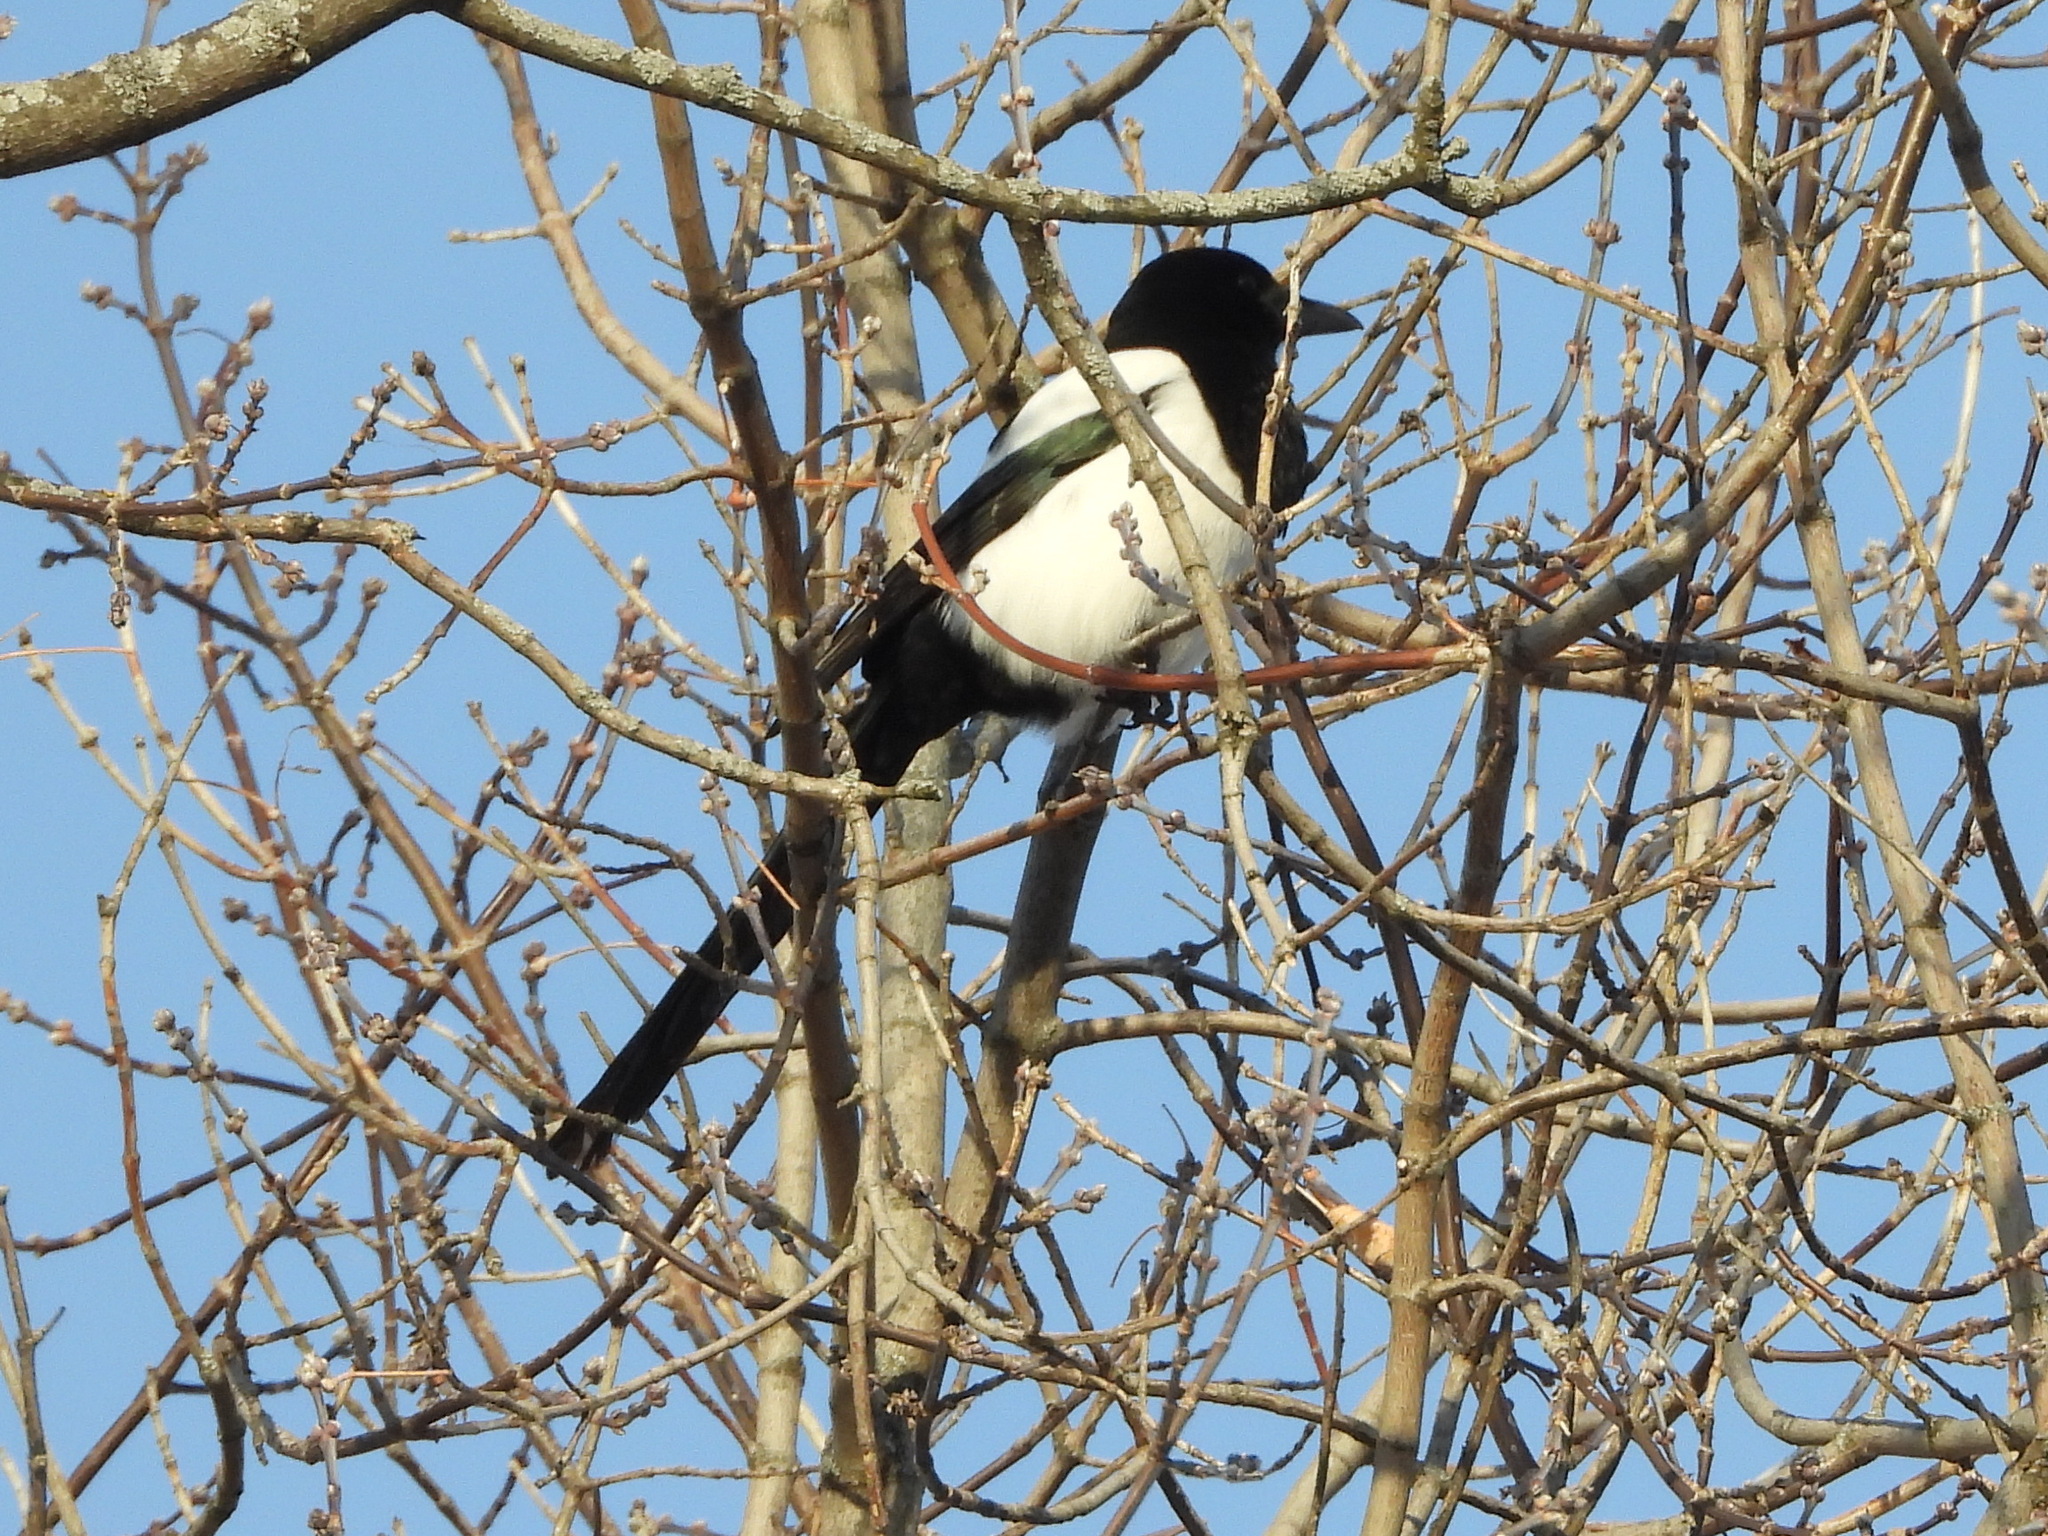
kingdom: Animalia
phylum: Chordata
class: Aves
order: Passeriformes
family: Corvidae
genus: Pica
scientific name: Pica pica
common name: Eurasian magpie
